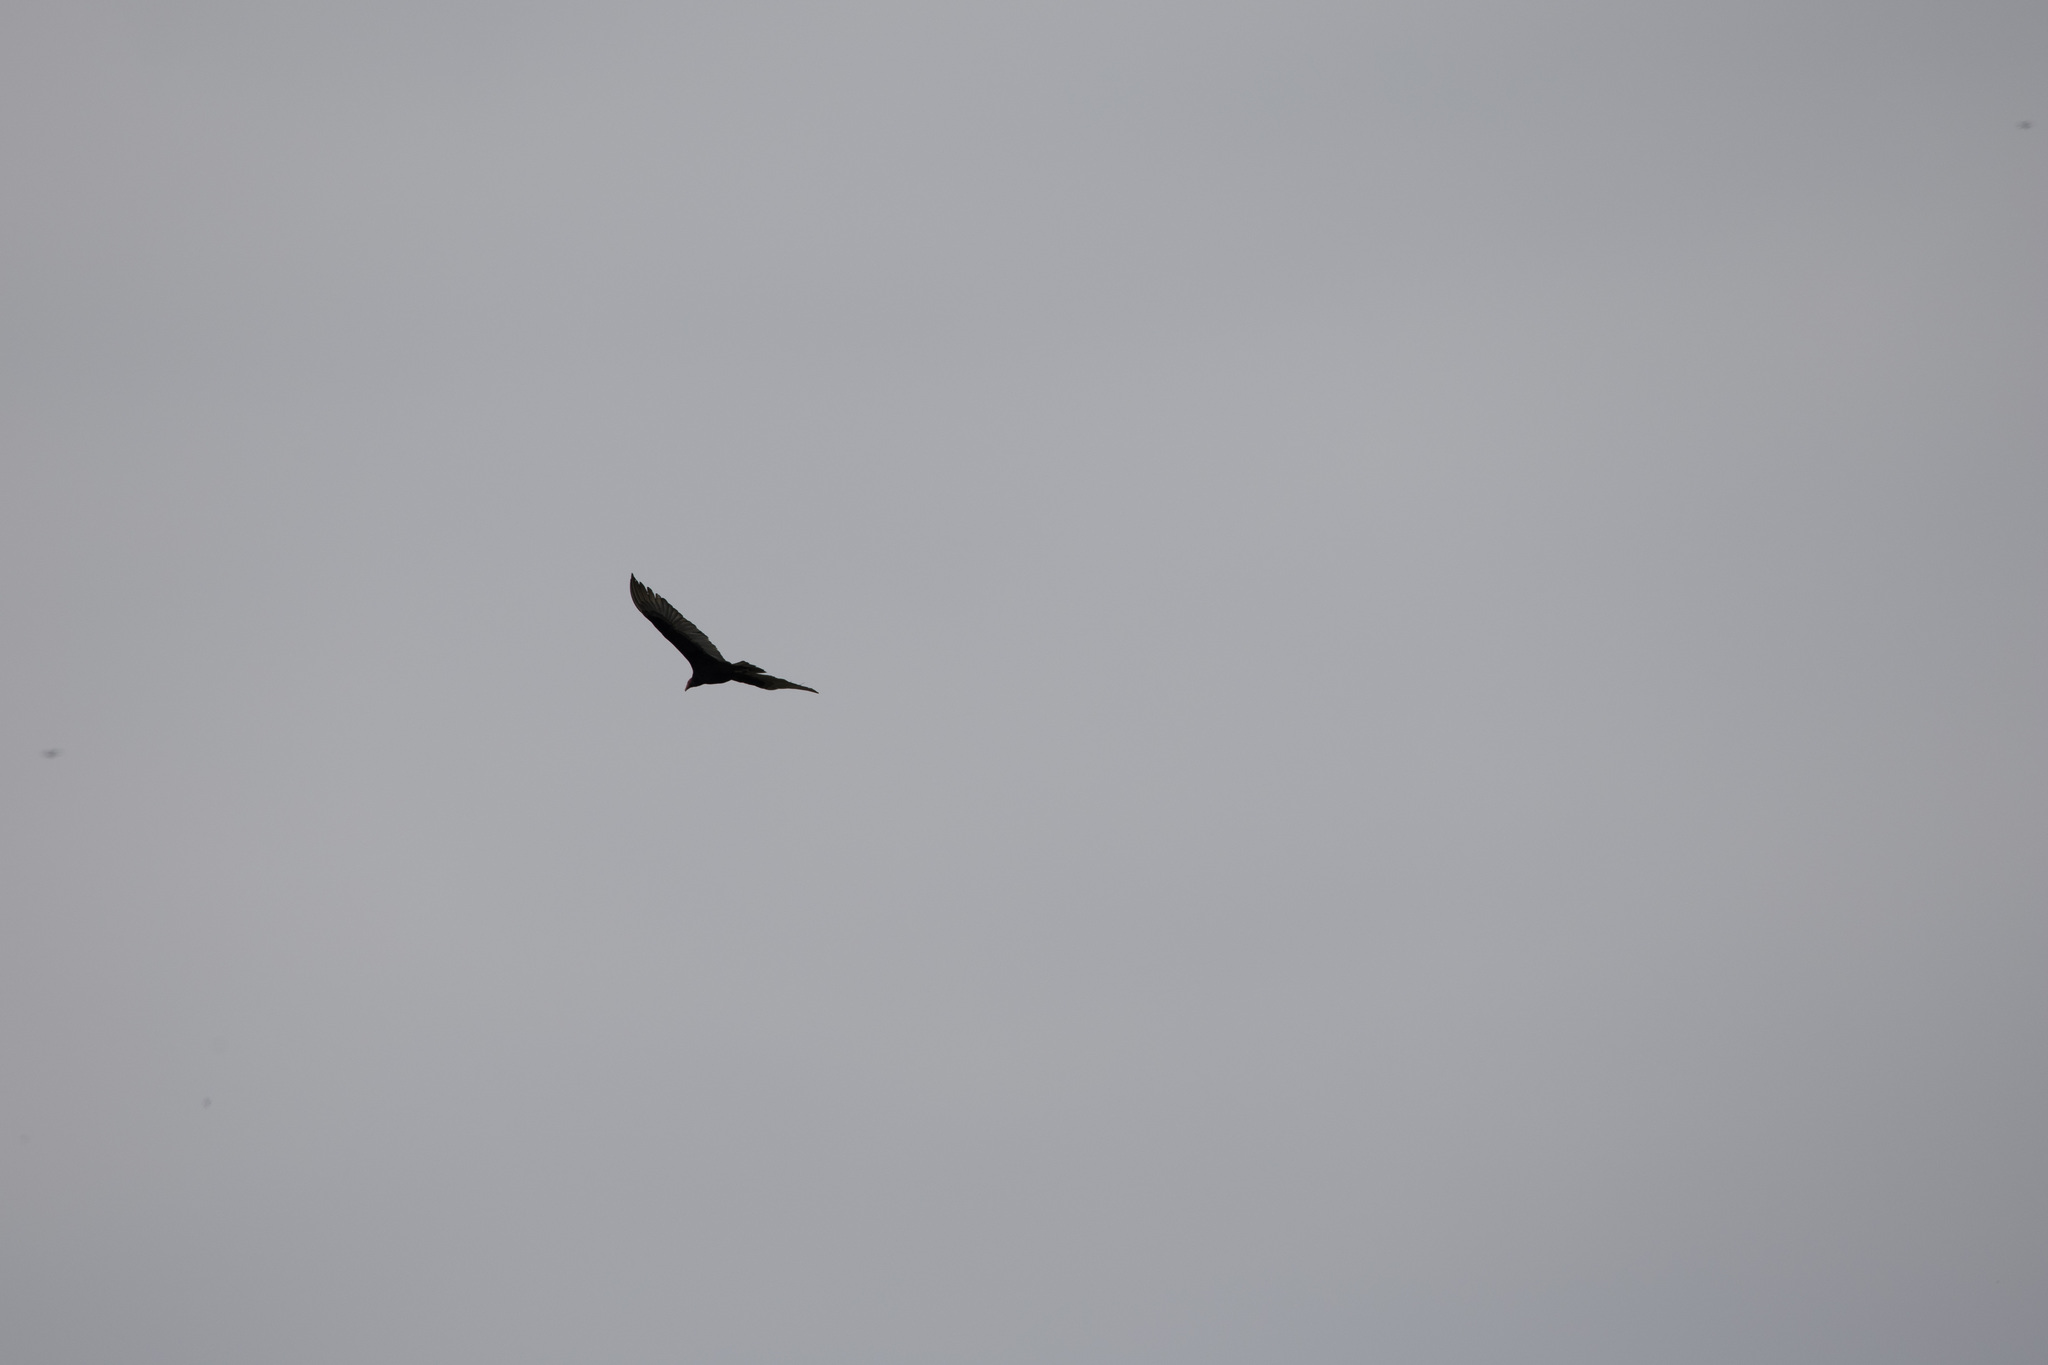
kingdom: Animalia
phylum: Chordata
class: Aves
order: Accipitriformes
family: Cathartidae
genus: Cathartes
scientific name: Cathartes aura
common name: Turkey vulture
